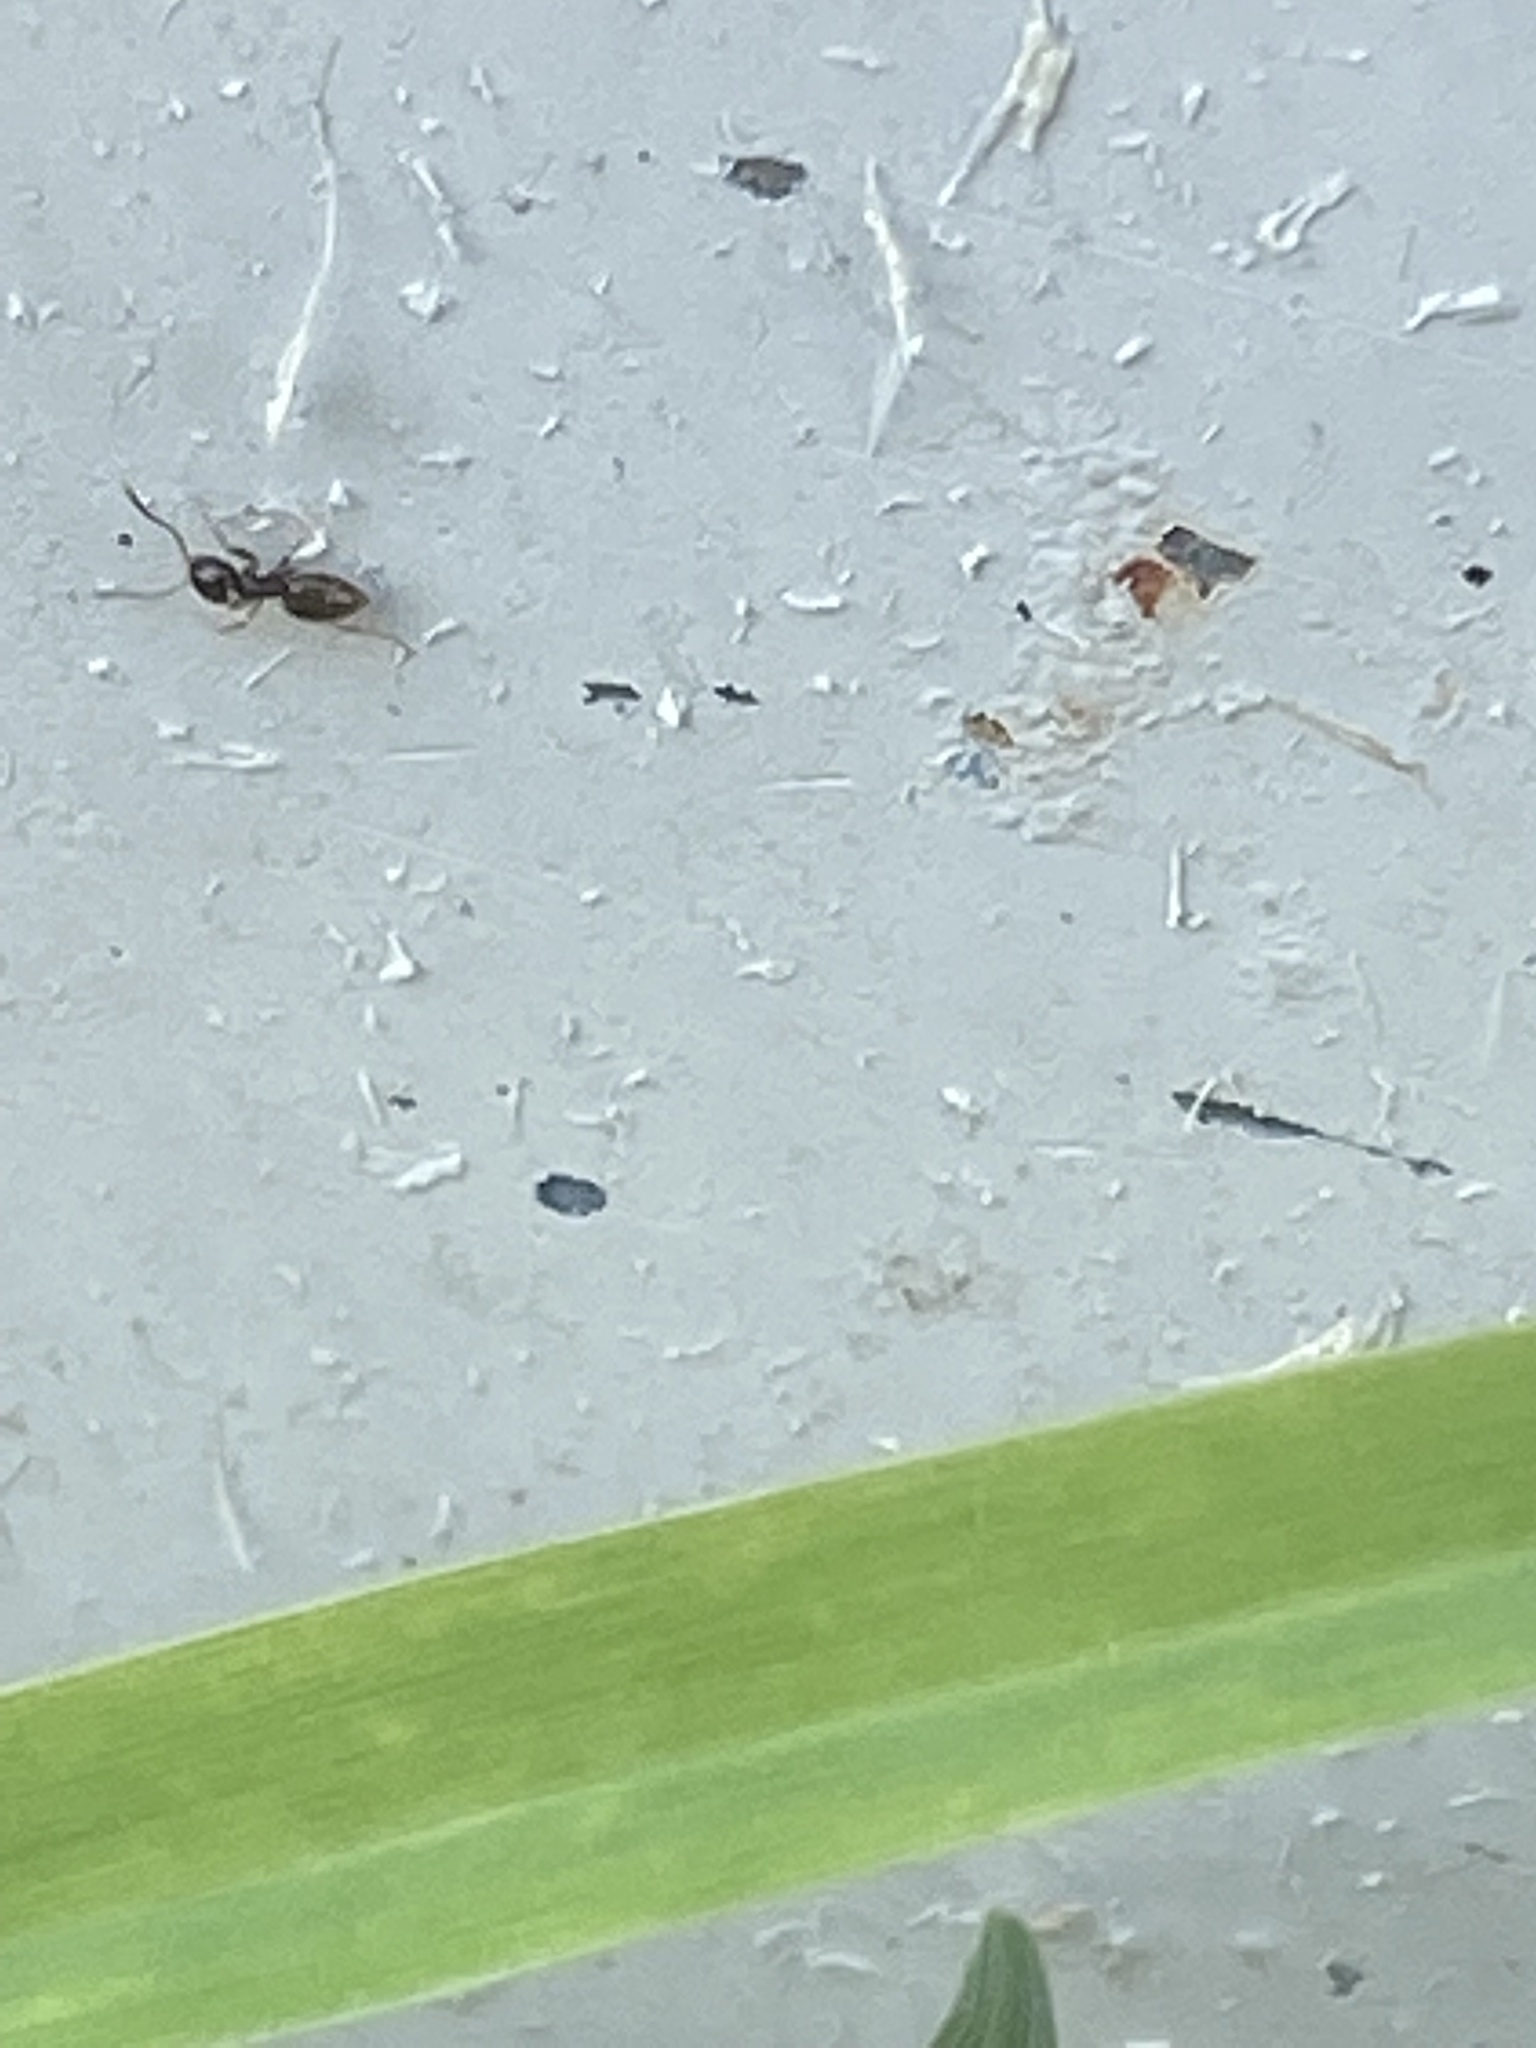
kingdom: Animalia
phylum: Arthropoda
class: Insecta
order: Hymenoptera
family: Formicidae
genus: Brachymyrmex
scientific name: Brachymyrmex patagonicus
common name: Dark rover ant
